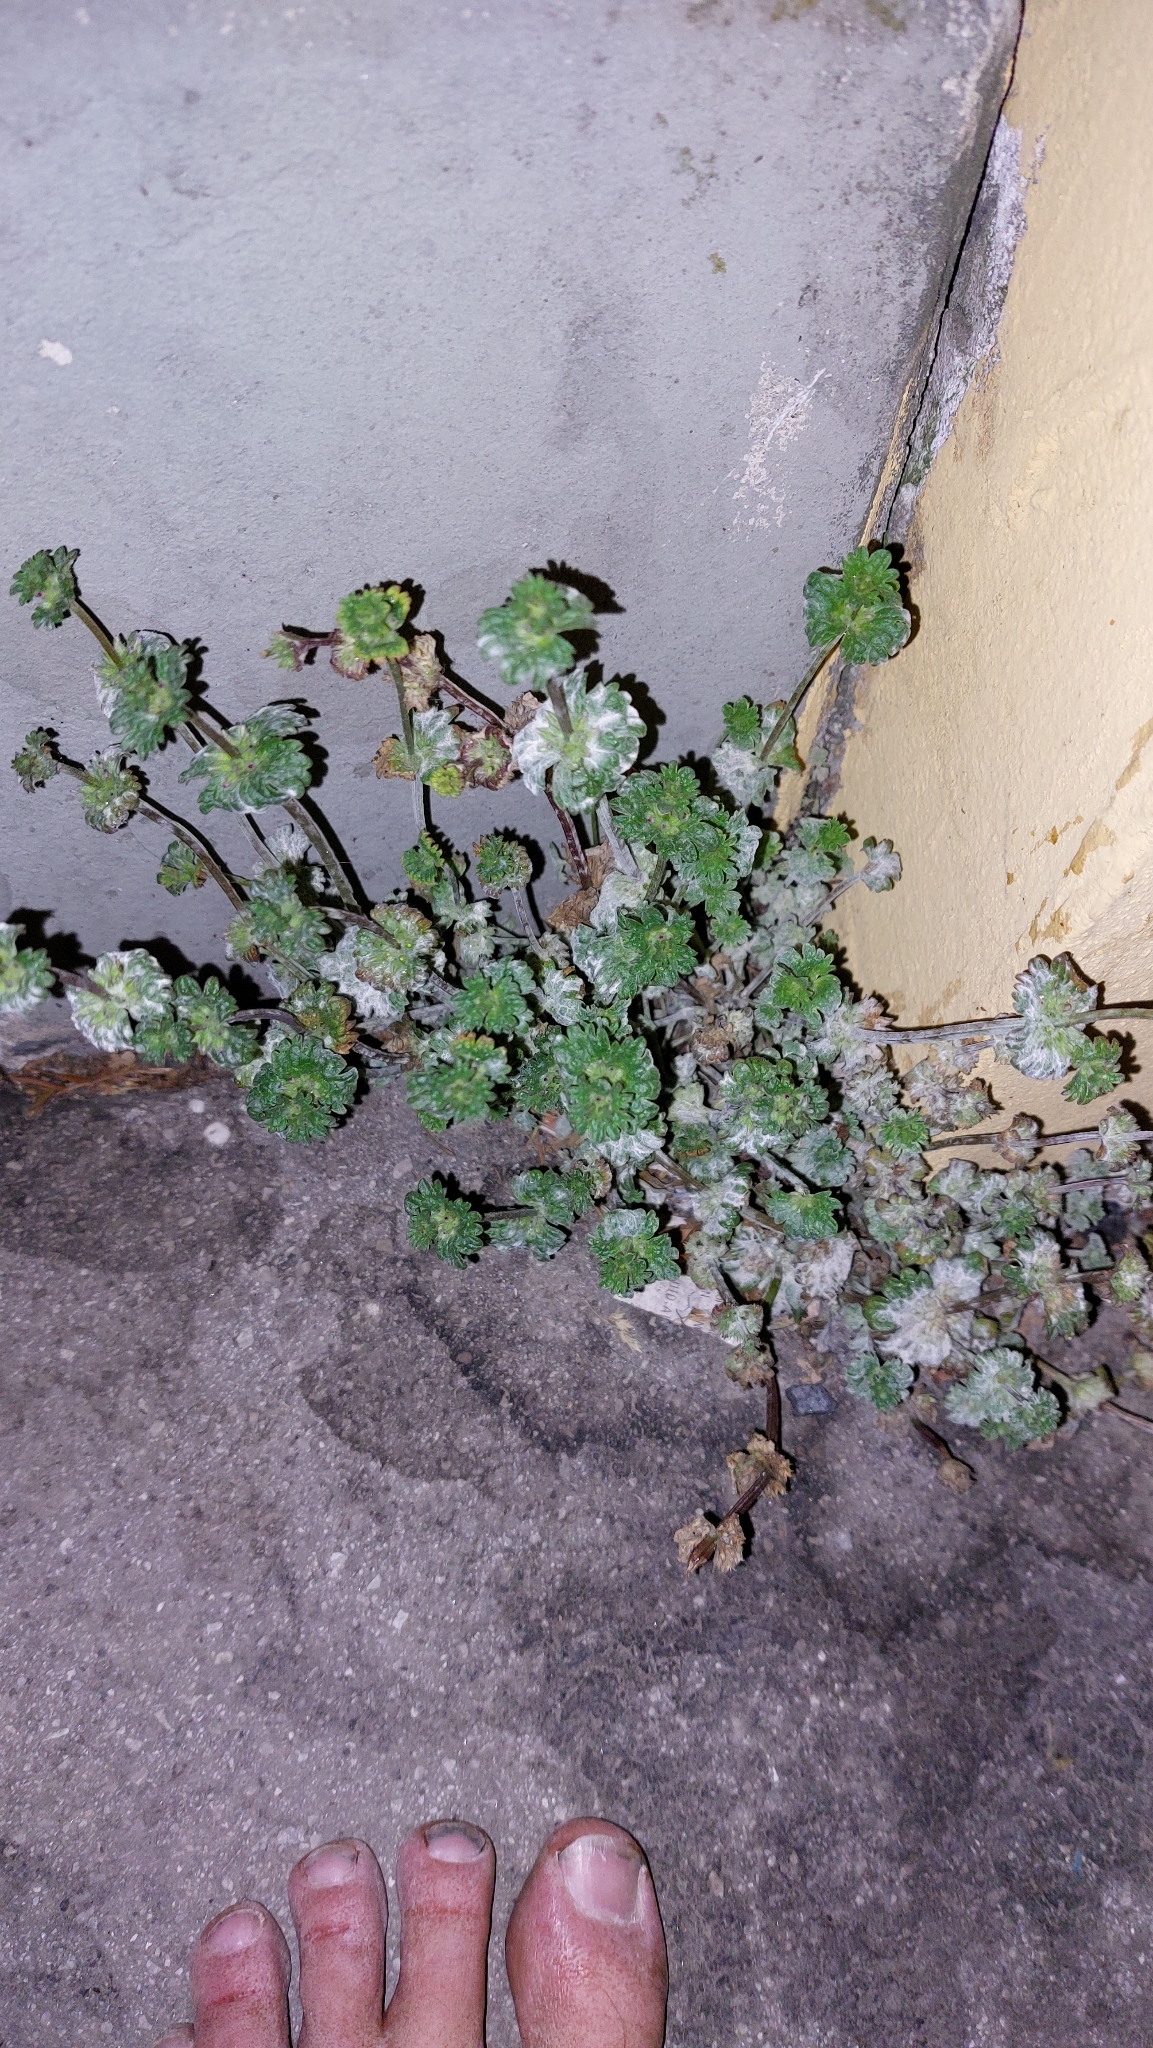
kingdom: Plantae
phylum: Tracheophyta
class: Magnoliopsida
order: Lamiales
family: Lamiaceae
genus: Lamium
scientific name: Lamium amplexicaule
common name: Henbit dead-nettle
